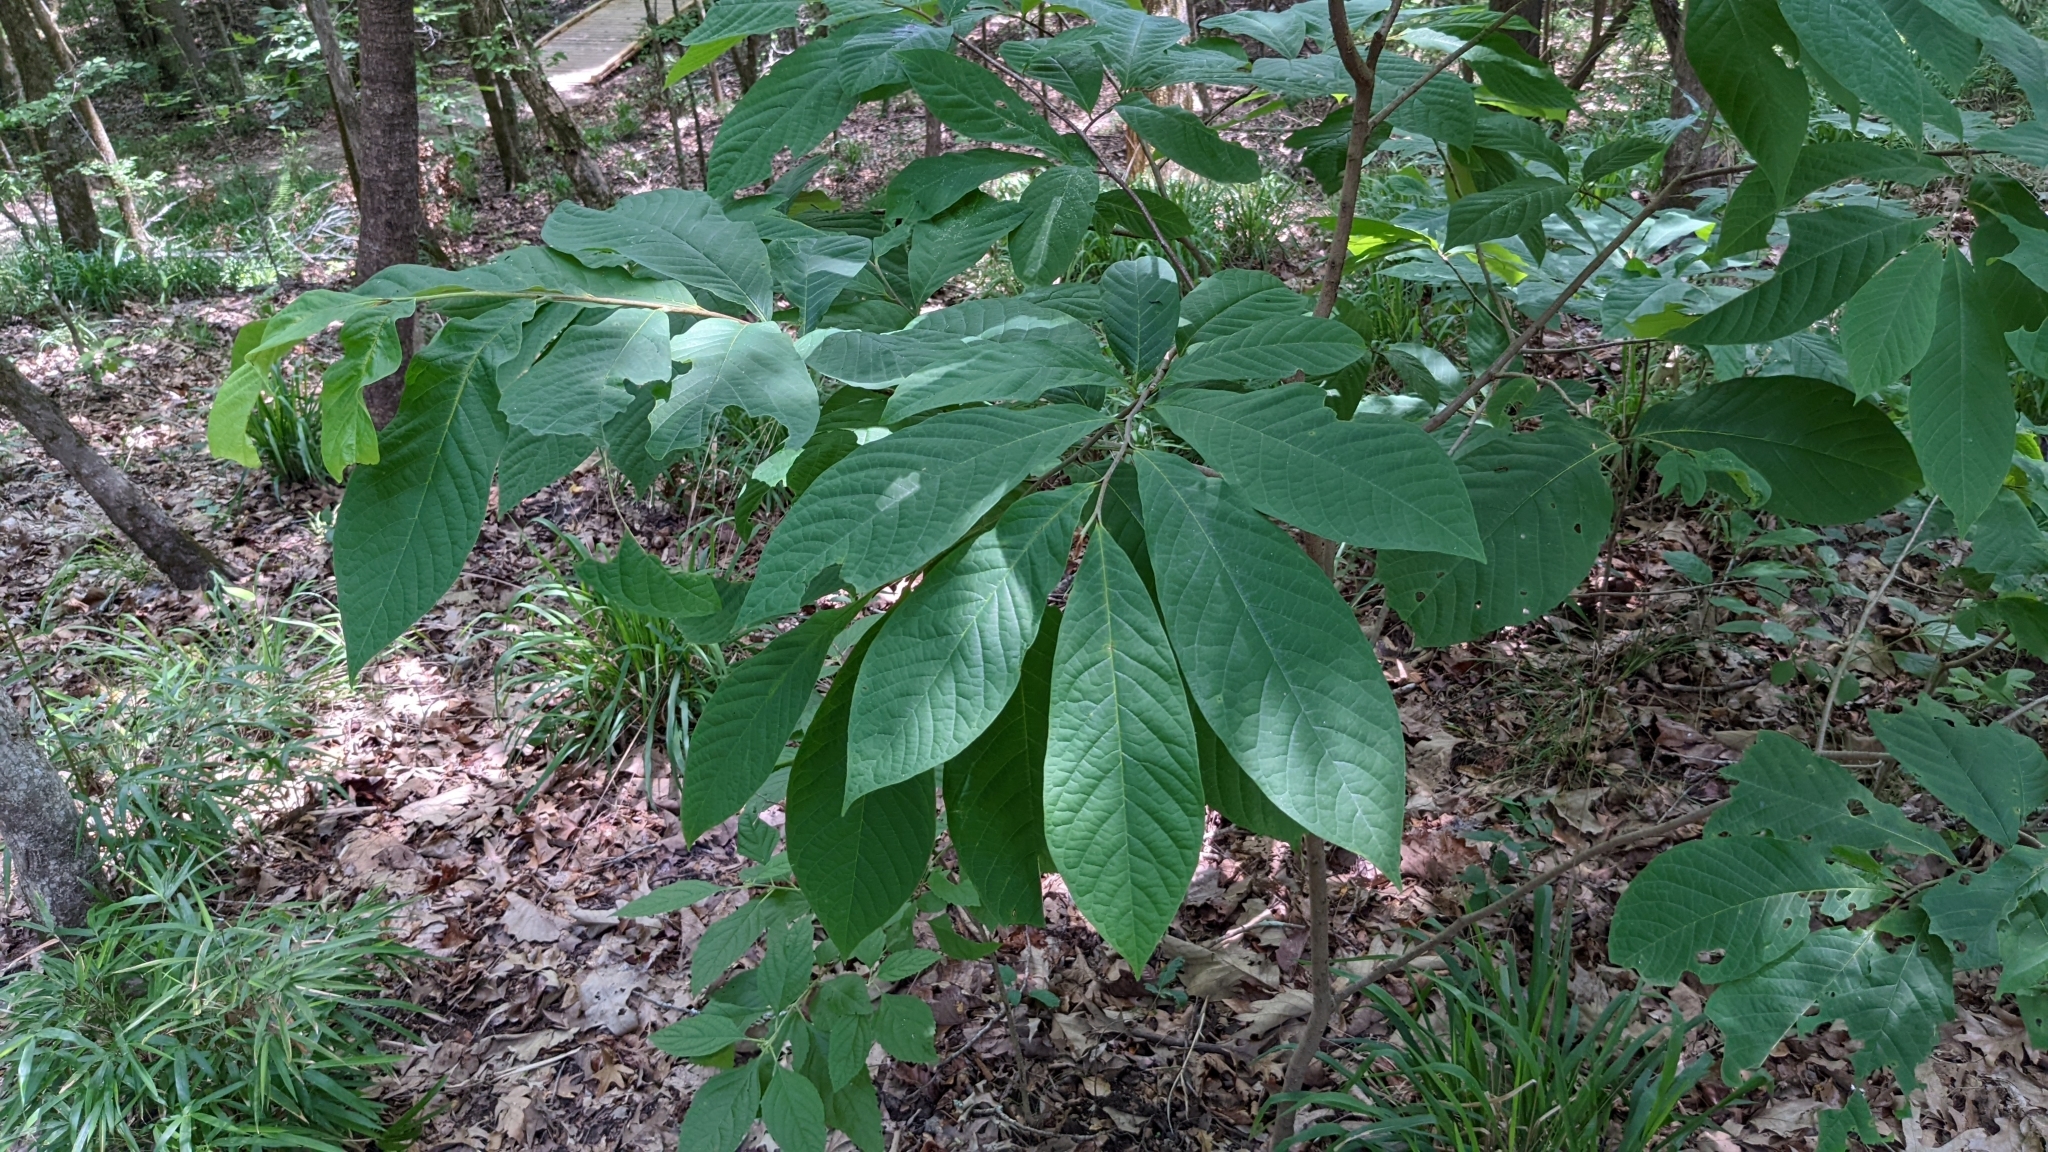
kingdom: Plantae
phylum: Tracheophyta
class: Magnoliopsida
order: Magnoliales
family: Annonaceae
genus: Asimina
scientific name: Asimina triloba
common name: Dog-banana
